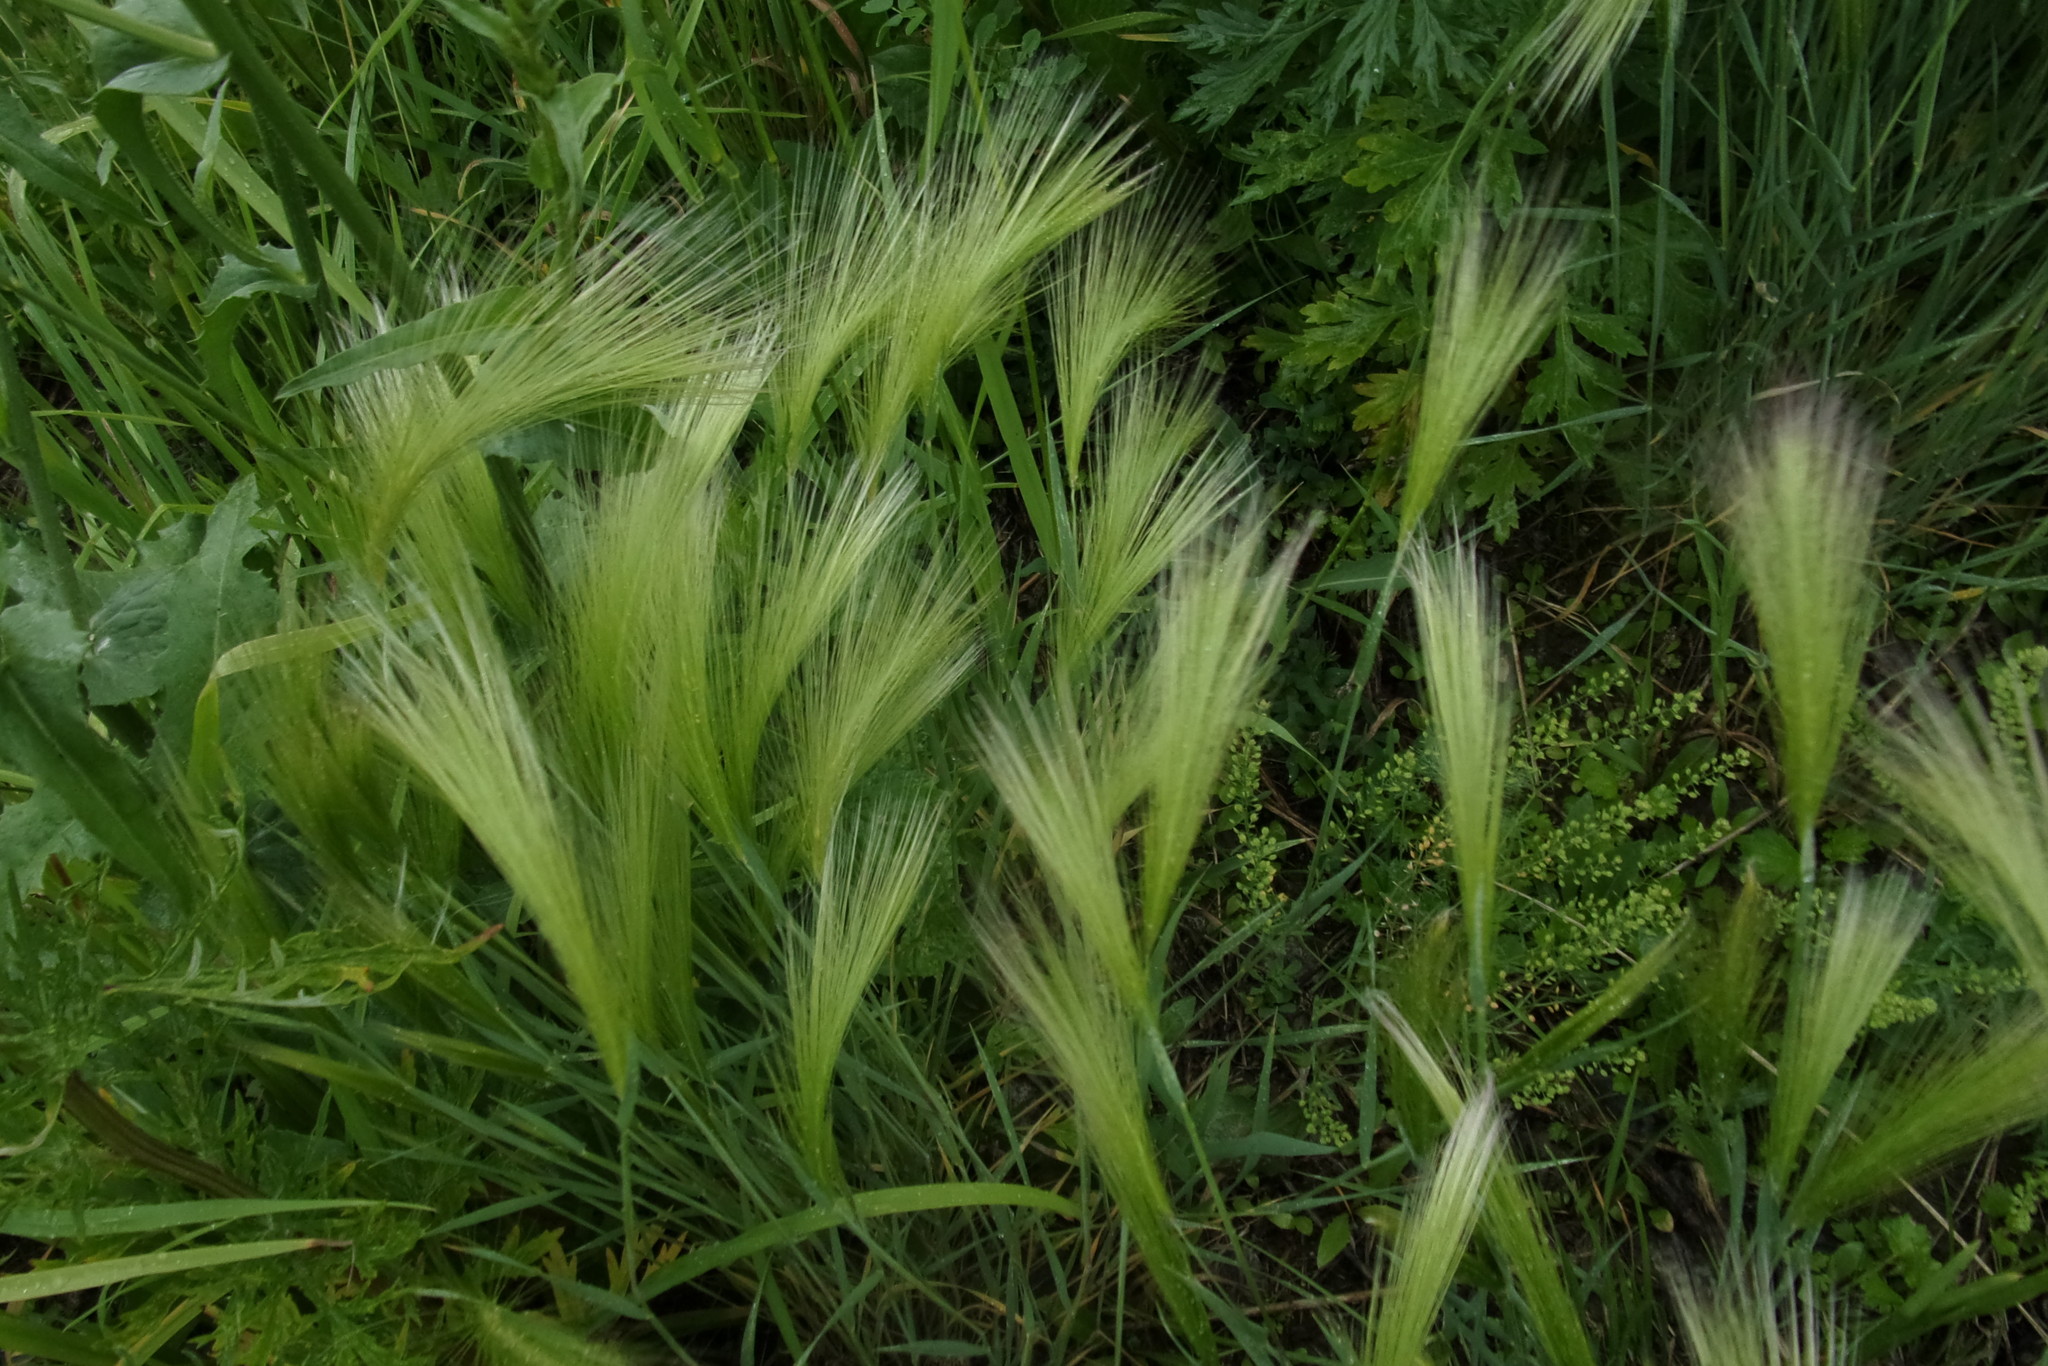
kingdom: Plantae
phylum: Tracheophyta
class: Liliopsida
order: Poales
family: Poaceae
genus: Hordeum
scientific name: Hordeum jubatum
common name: Foxtail barley
